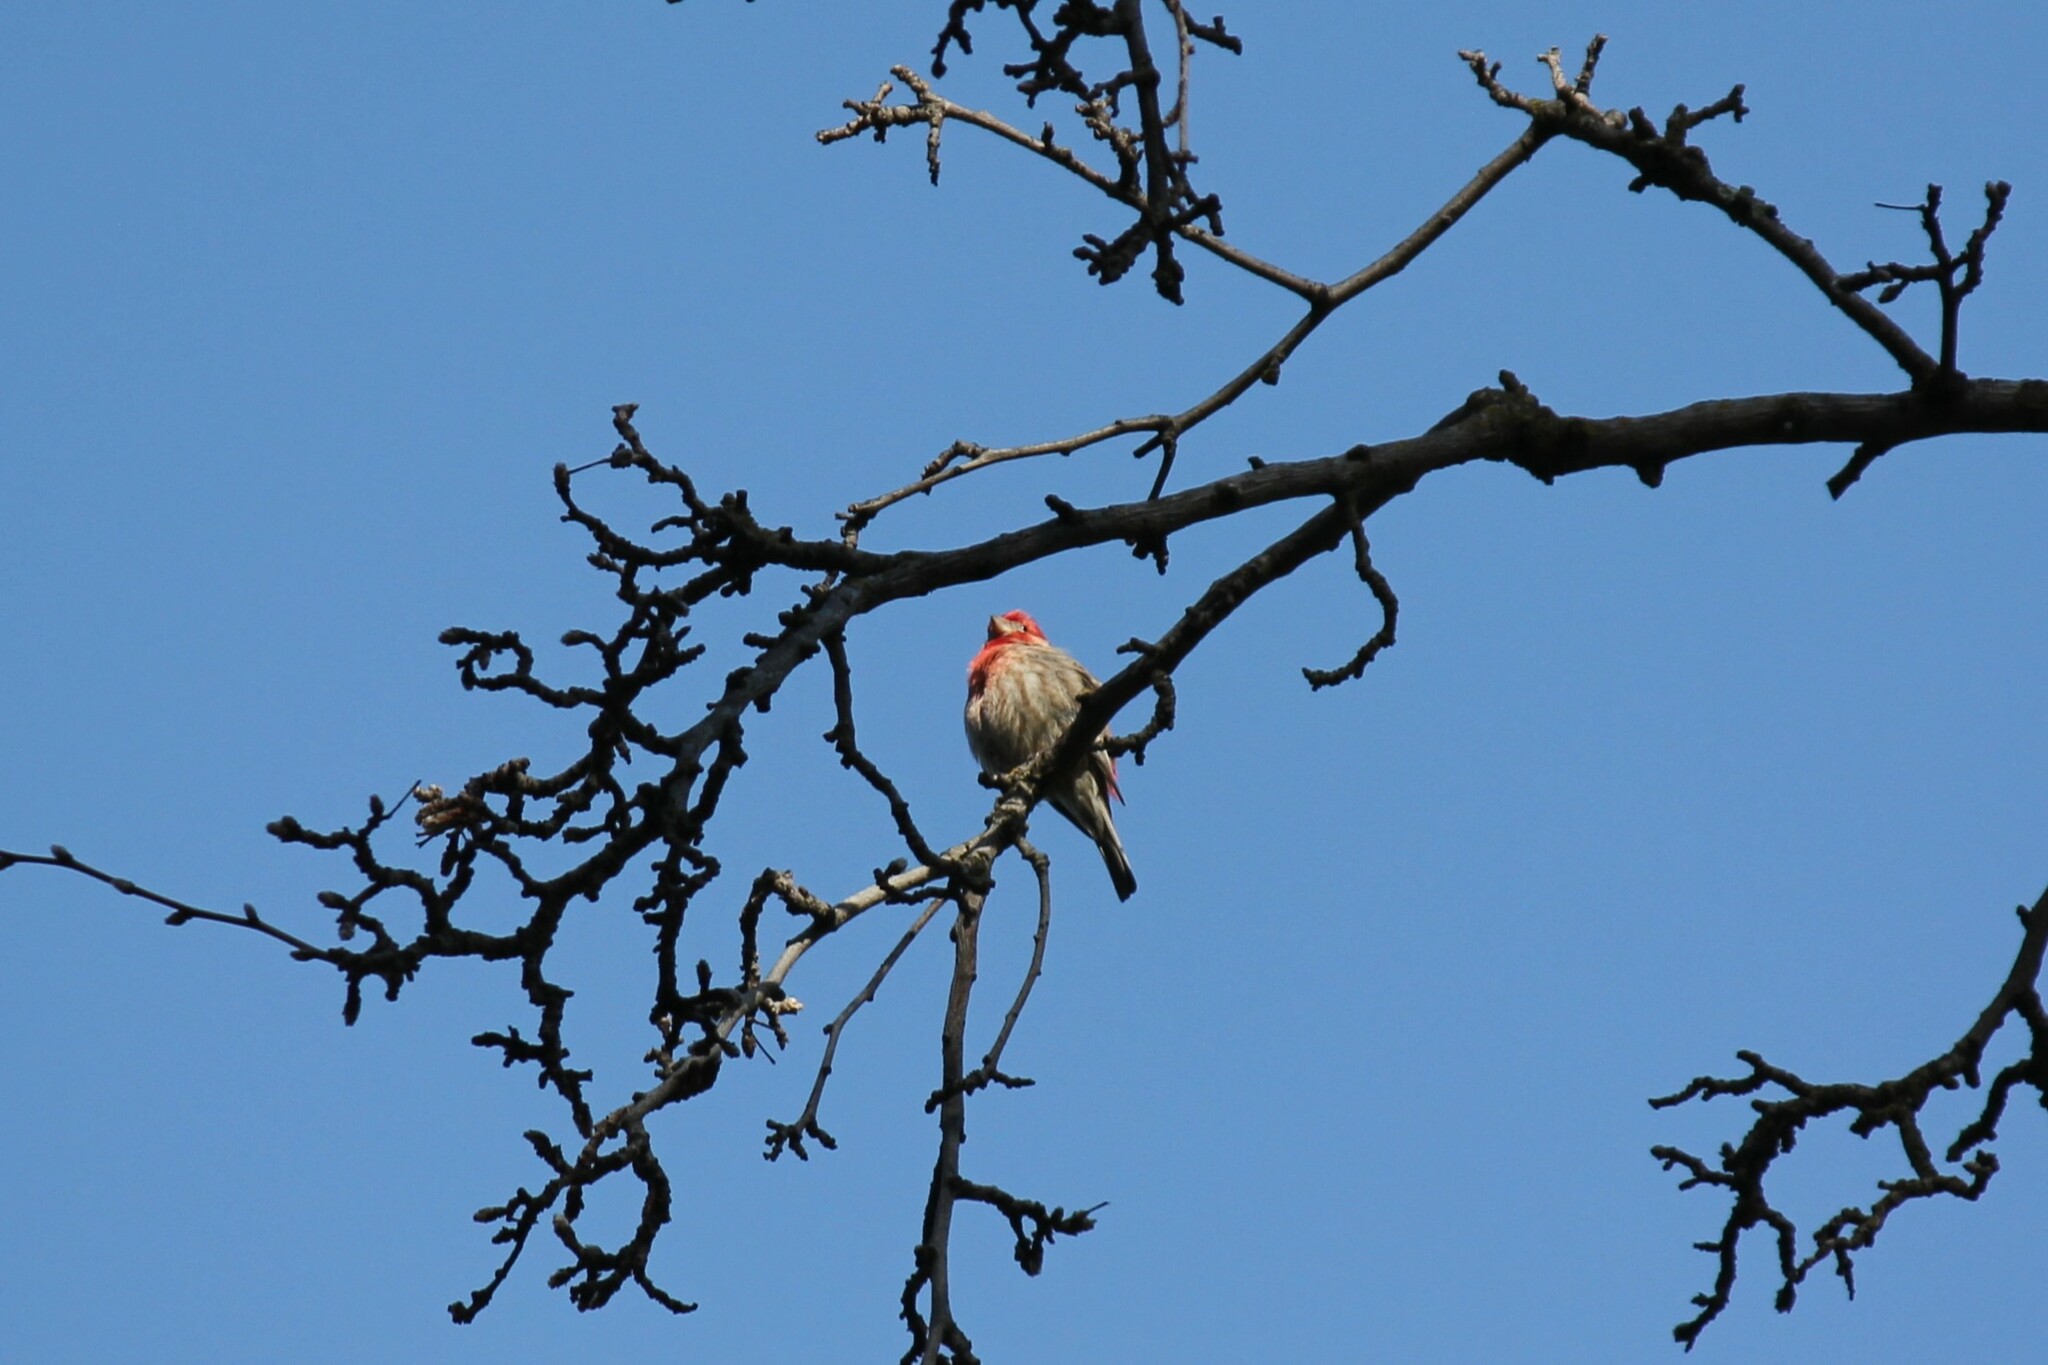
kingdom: Animalia
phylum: Chordata
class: Aves
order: Passeriformes
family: Fringillidae
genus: Haemorhous
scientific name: Haemorhous mexicanus
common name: House finch
